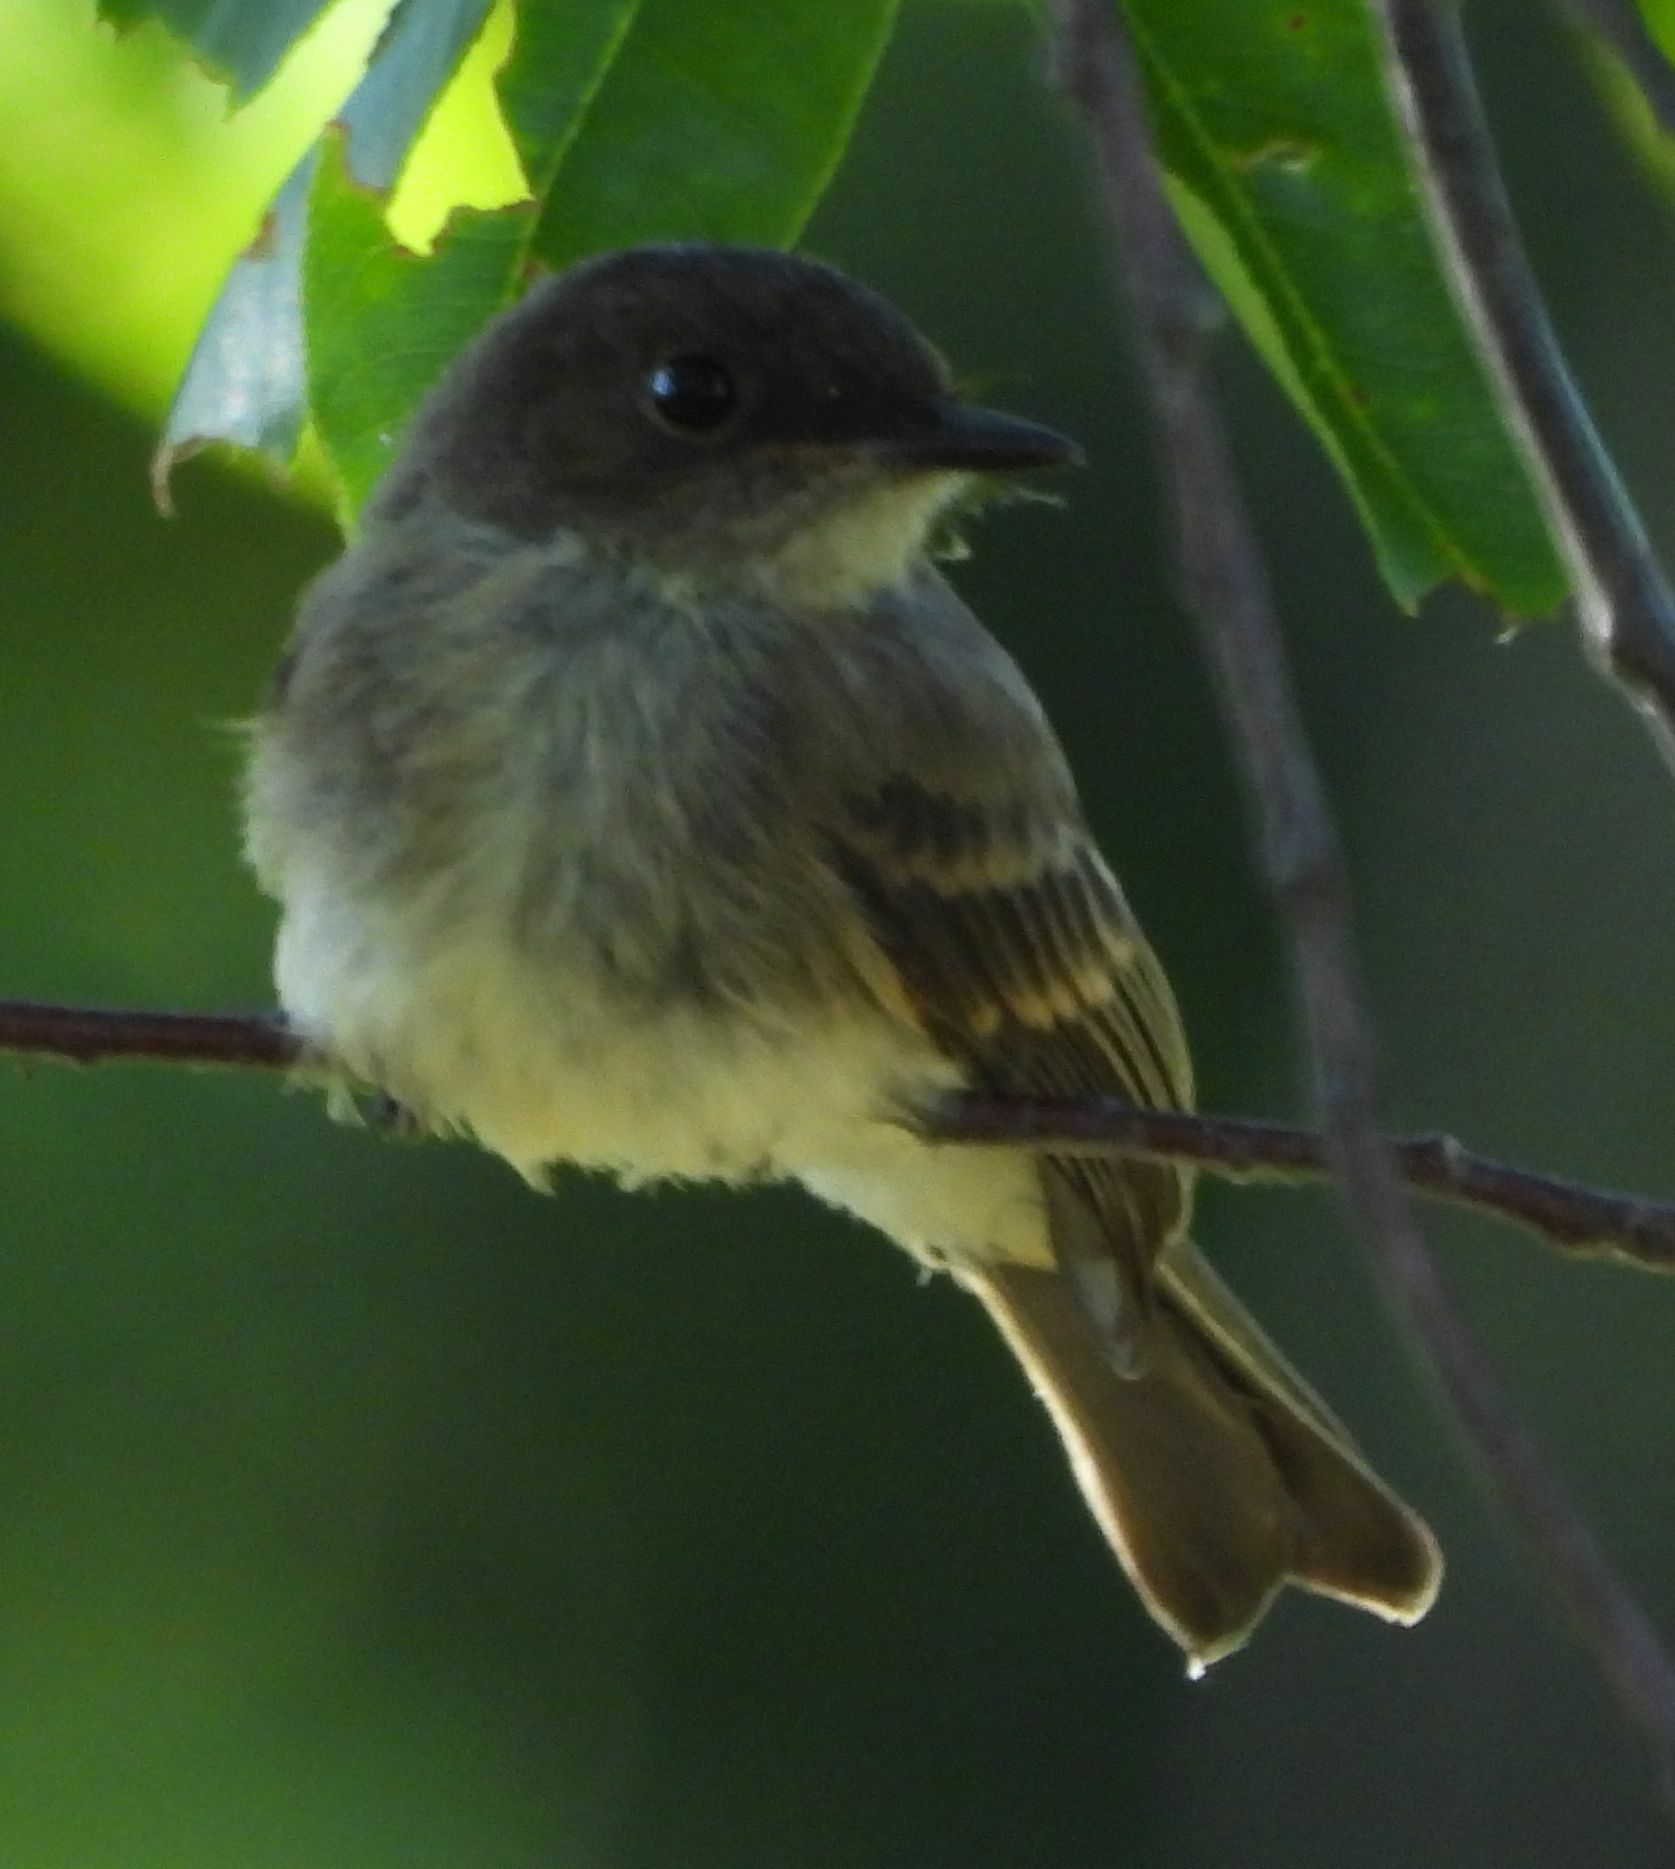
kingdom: Animalia
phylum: Chordata
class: Aves
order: Passeriformes
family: Tyrannidae
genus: Sayornis
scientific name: Sayornis phoebe
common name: Eastern phoebe
